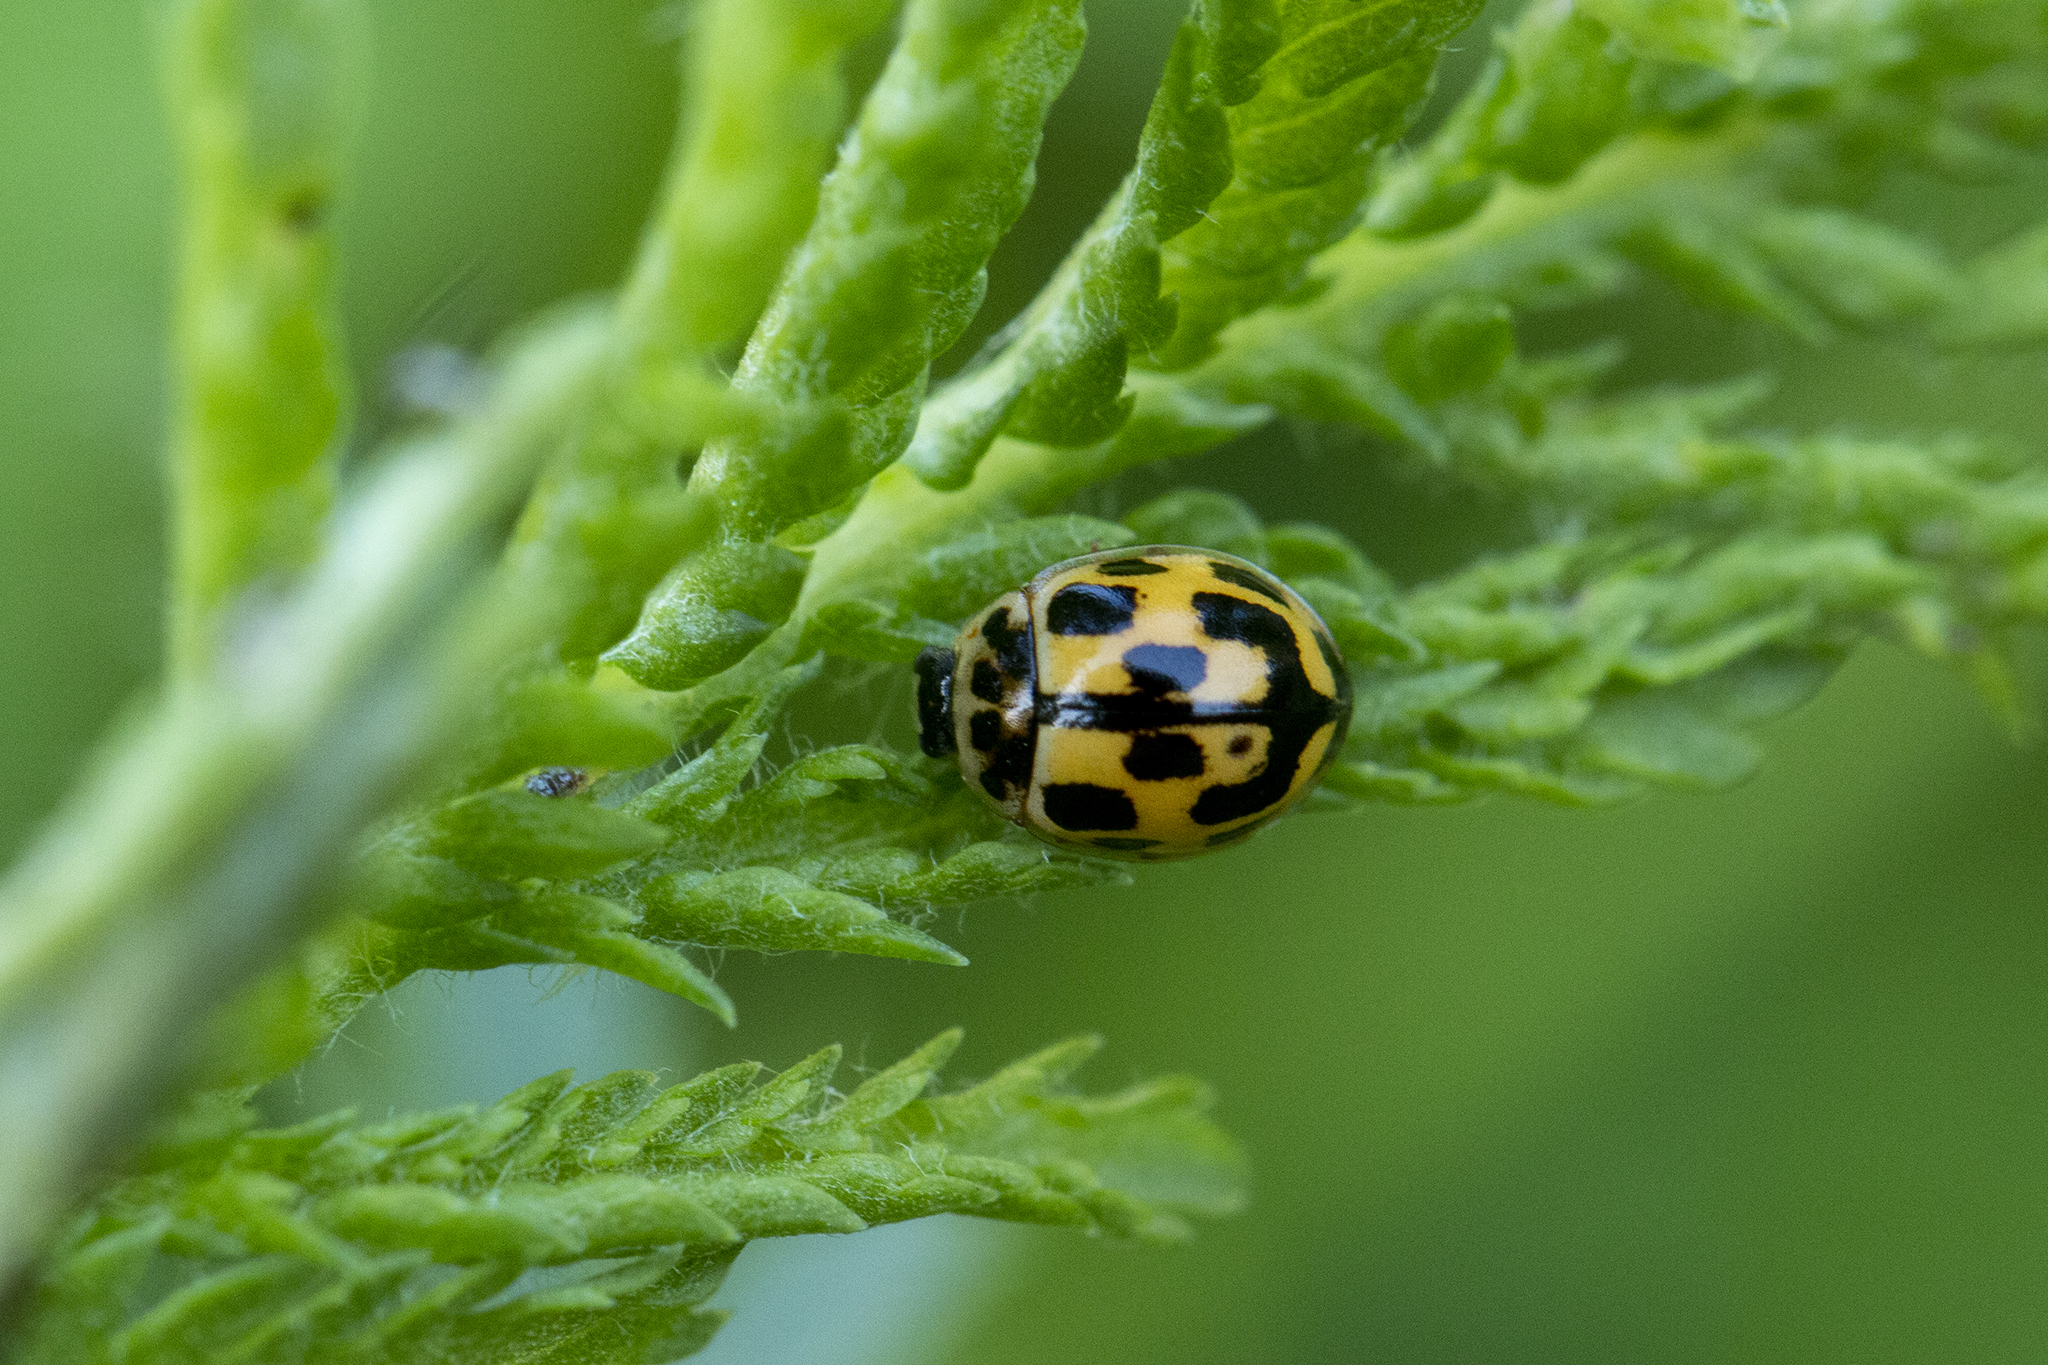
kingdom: Animalia
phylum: Arthropoda
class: Insecta
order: Coleoptera
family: Coccinellidae
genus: Propylaea
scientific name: Propylaea quatuordecimpunctata
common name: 14-spotted ladybird beetle
